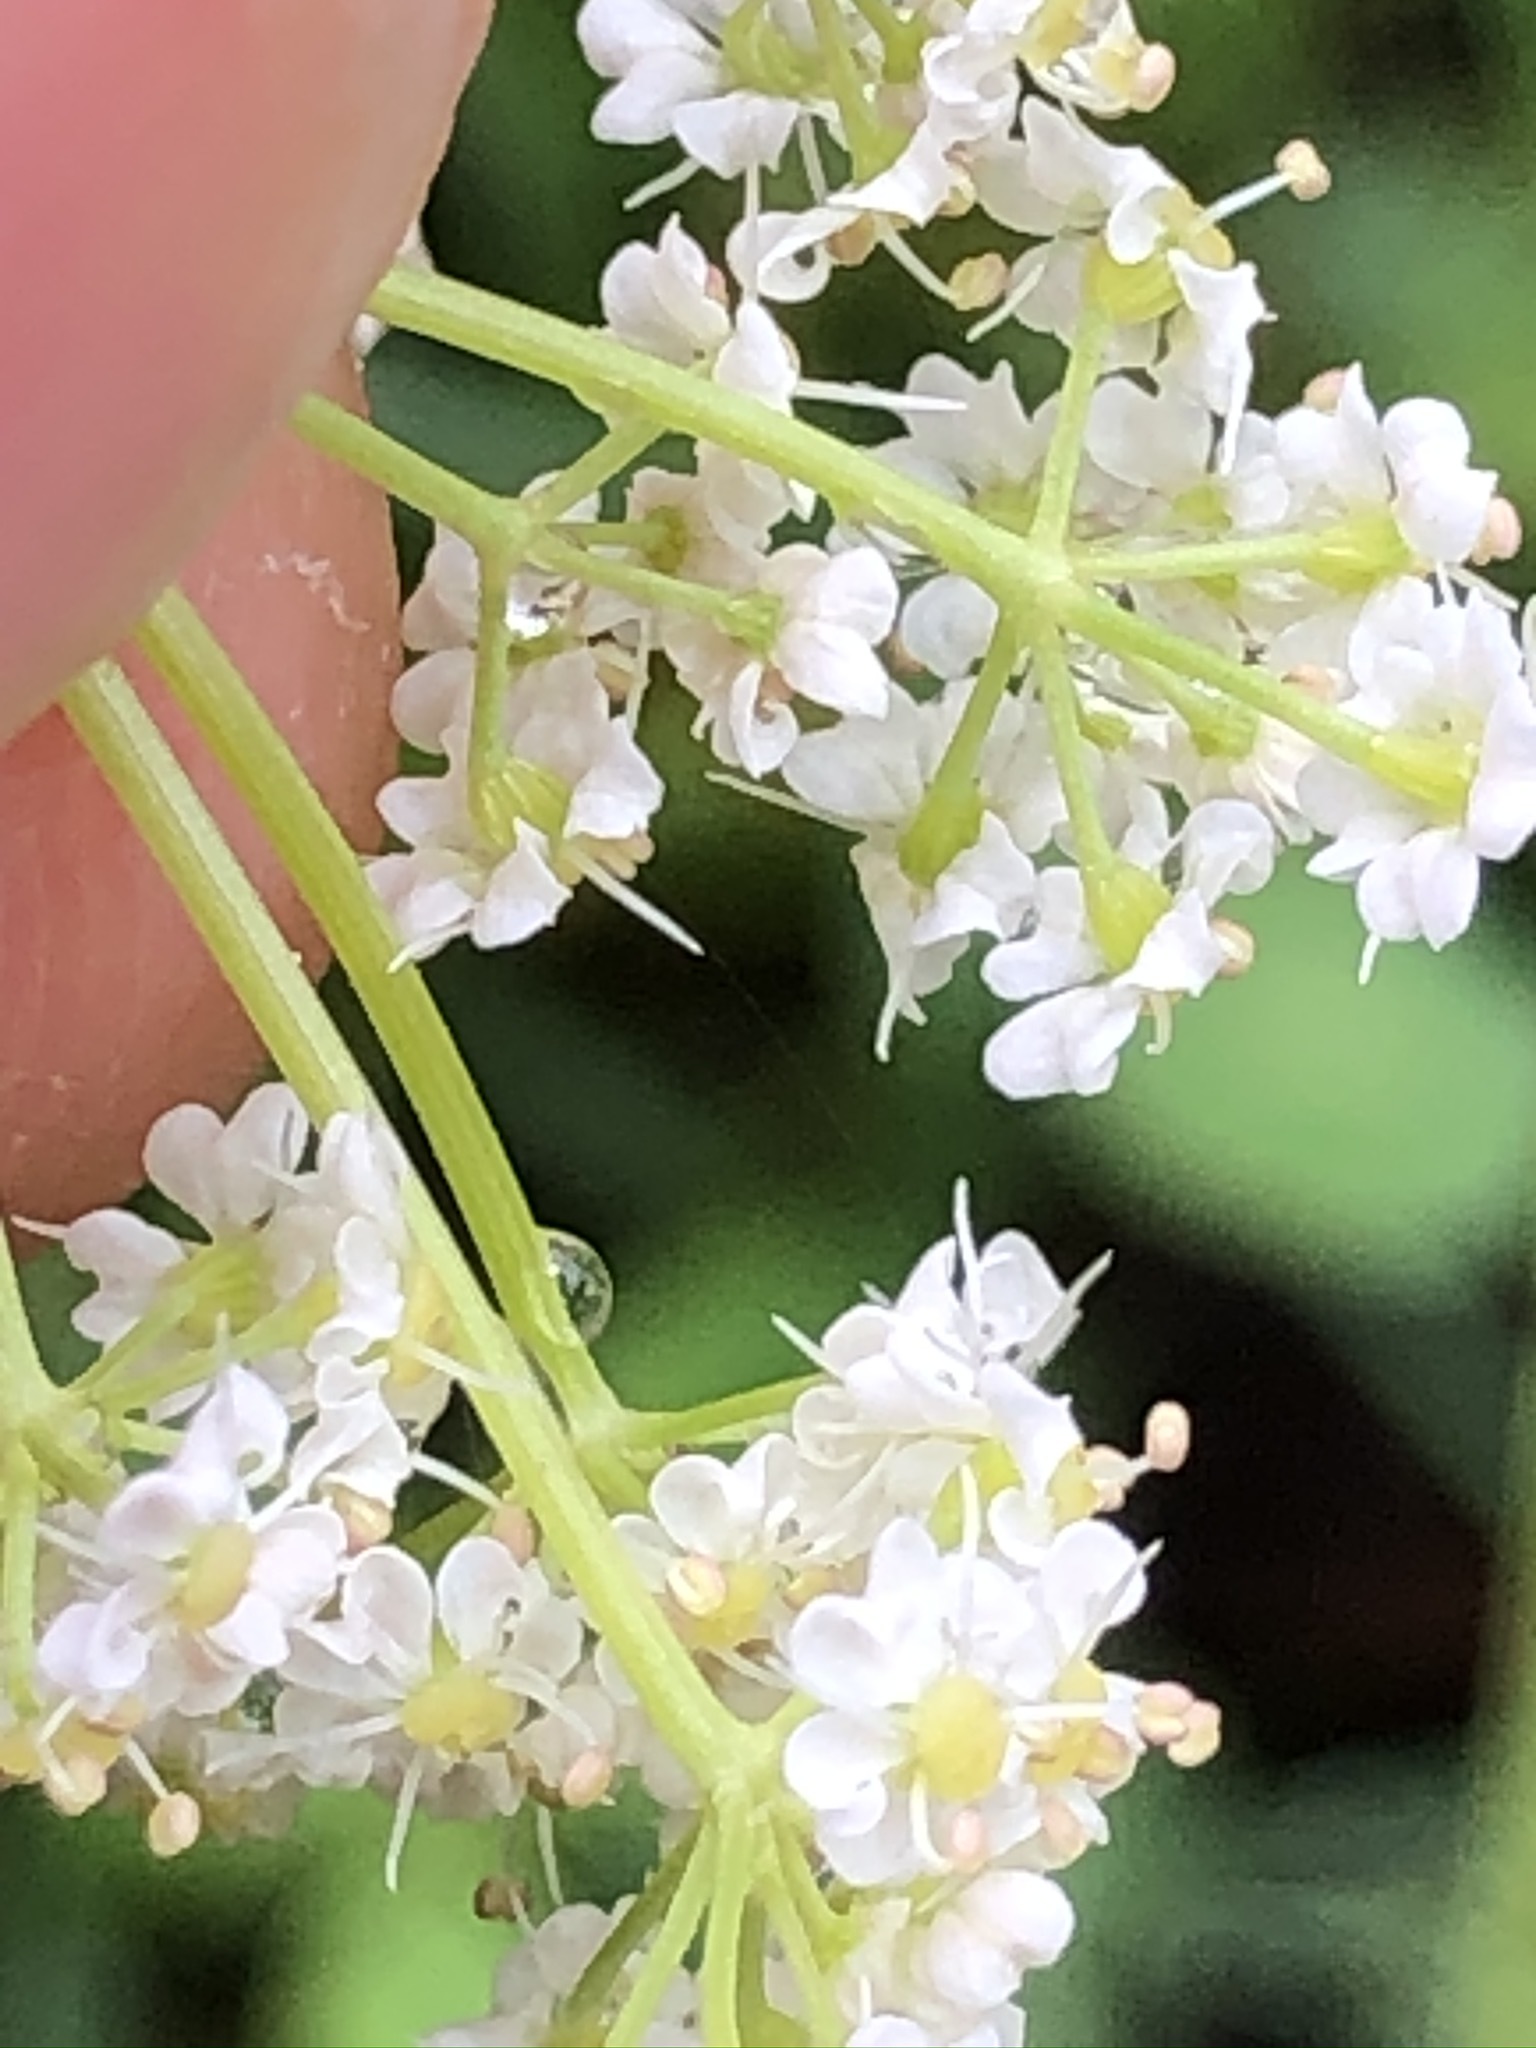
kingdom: Plantae
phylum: Tracheophyta
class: Magnoliopsida
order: Apiales
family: Apiaceae
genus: Carum
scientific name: Carum carvi
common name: Caraway
